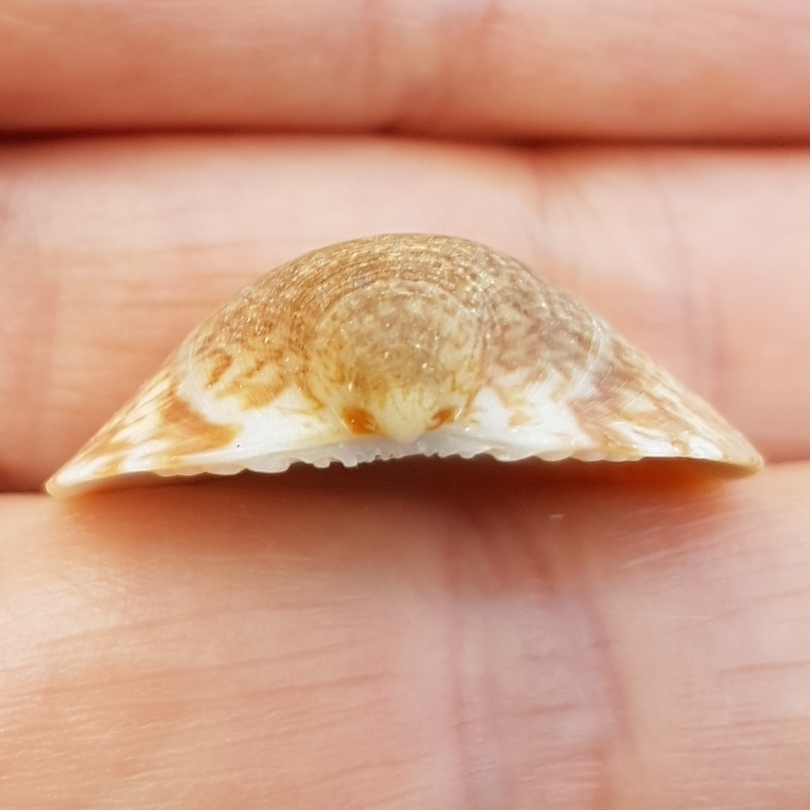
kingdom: Animalia
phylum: Mollusca
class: Bivalvia
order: Arcida
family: Glycymerididae
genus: Glycymeris
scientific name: Glycymeris pilosa
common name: Hairy bittersweet
